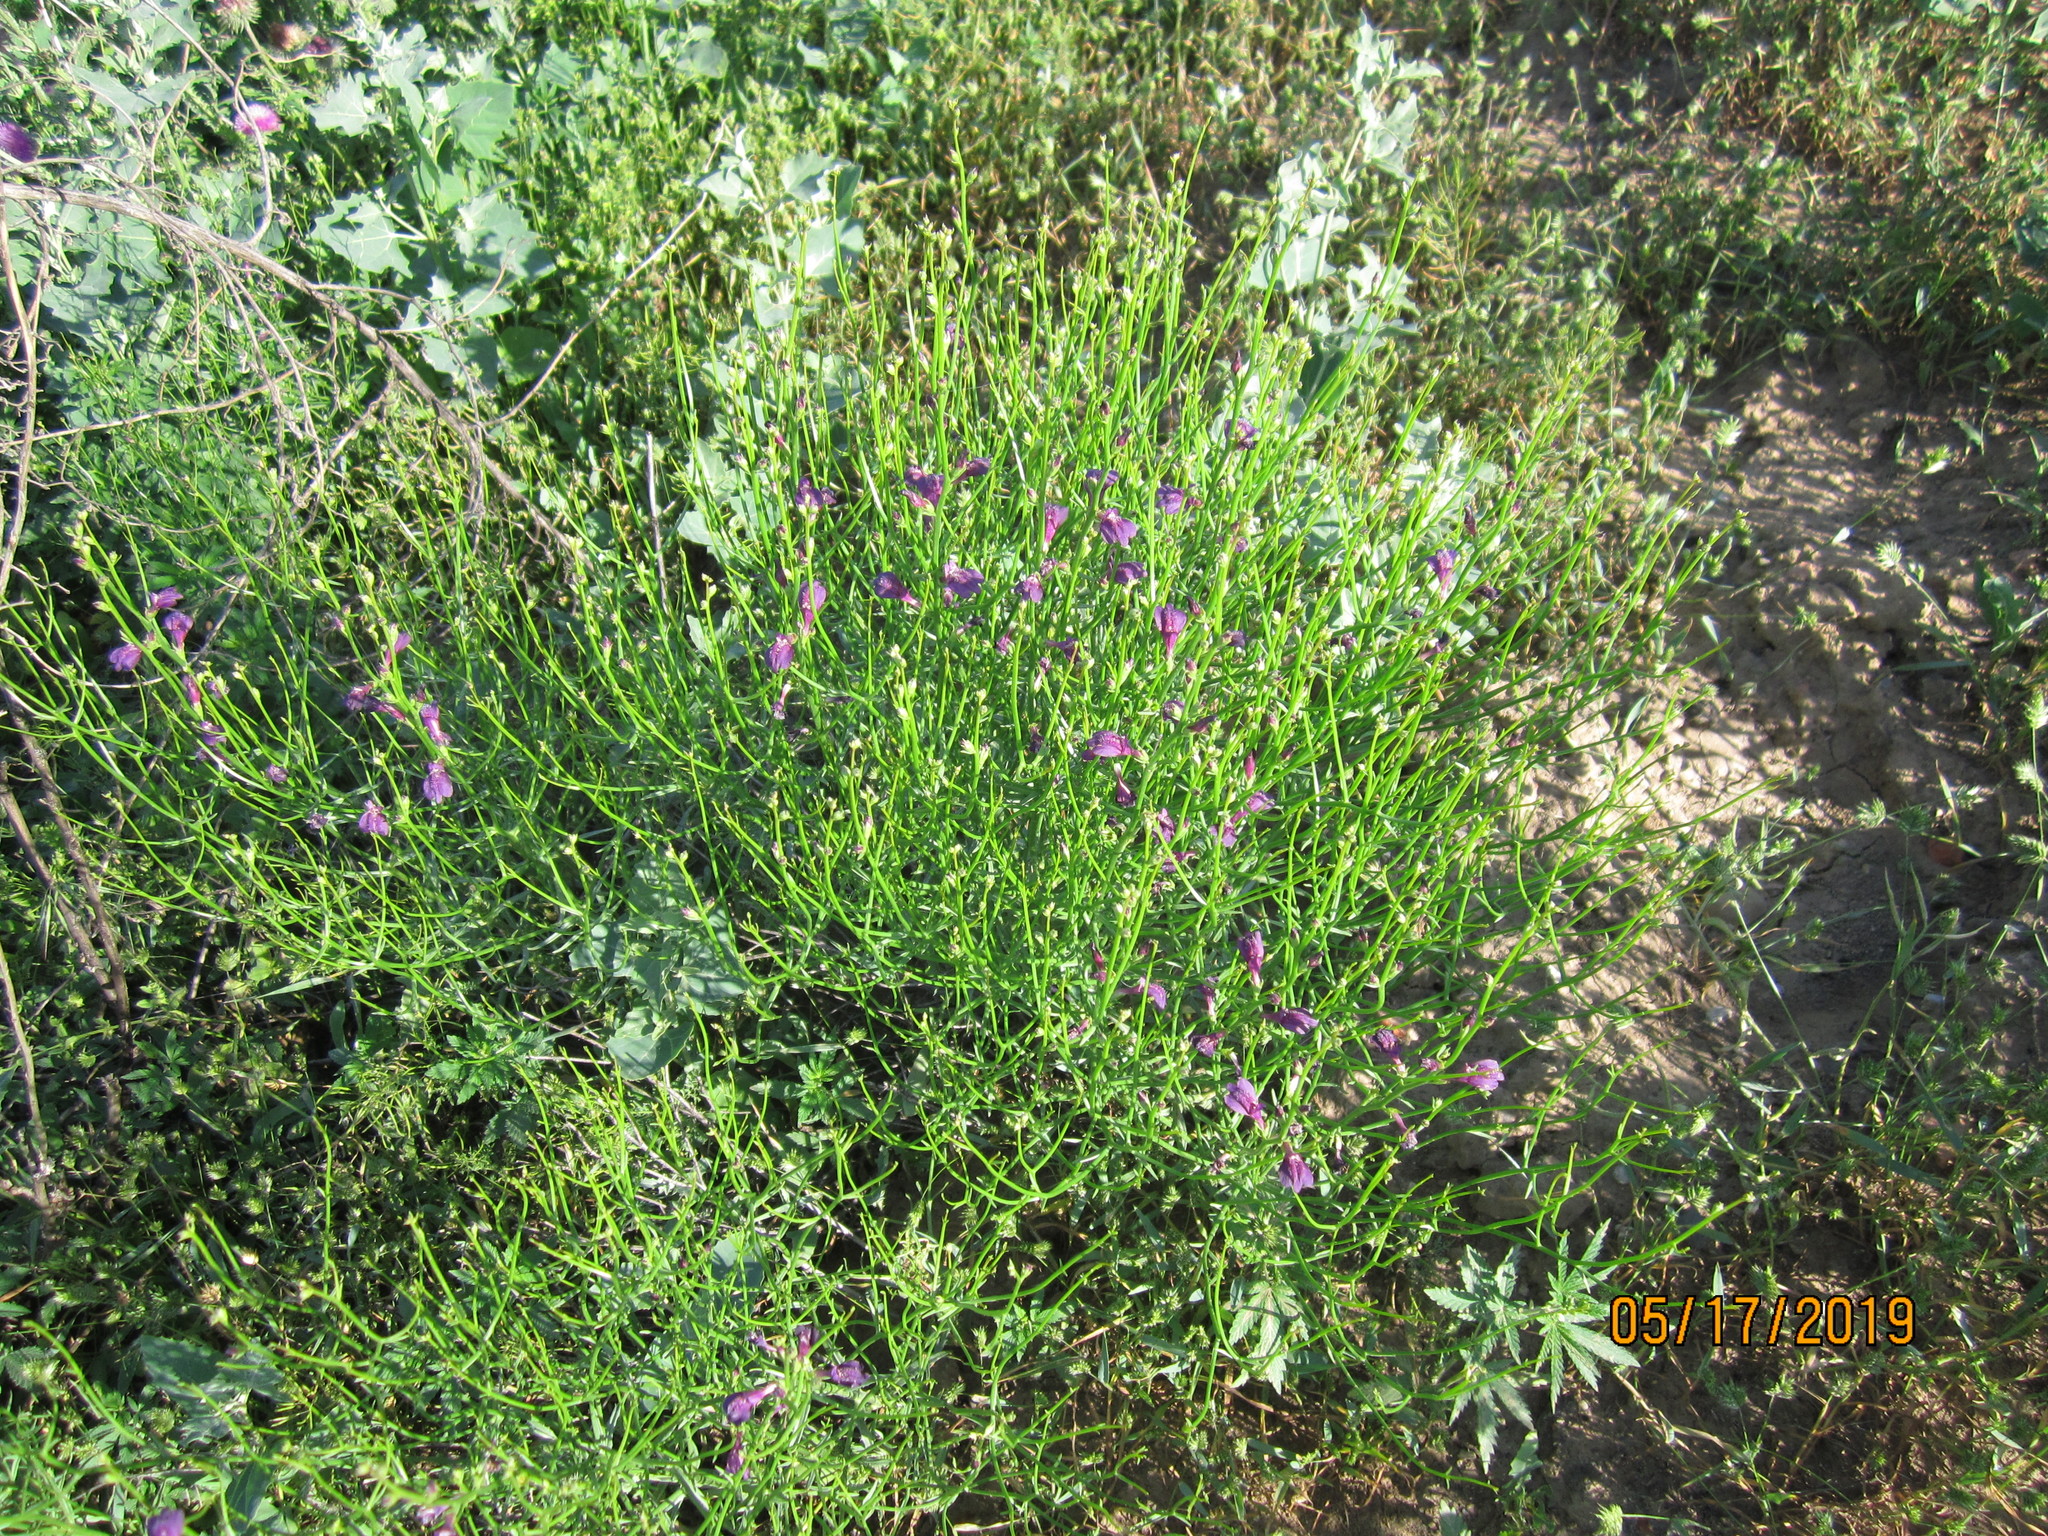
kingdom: Plantae
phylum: Tracheophyta
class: Magnoliopsida
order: Lamiales
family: Mazaceae
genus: Dodartia
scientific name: Dodartia orientalis
